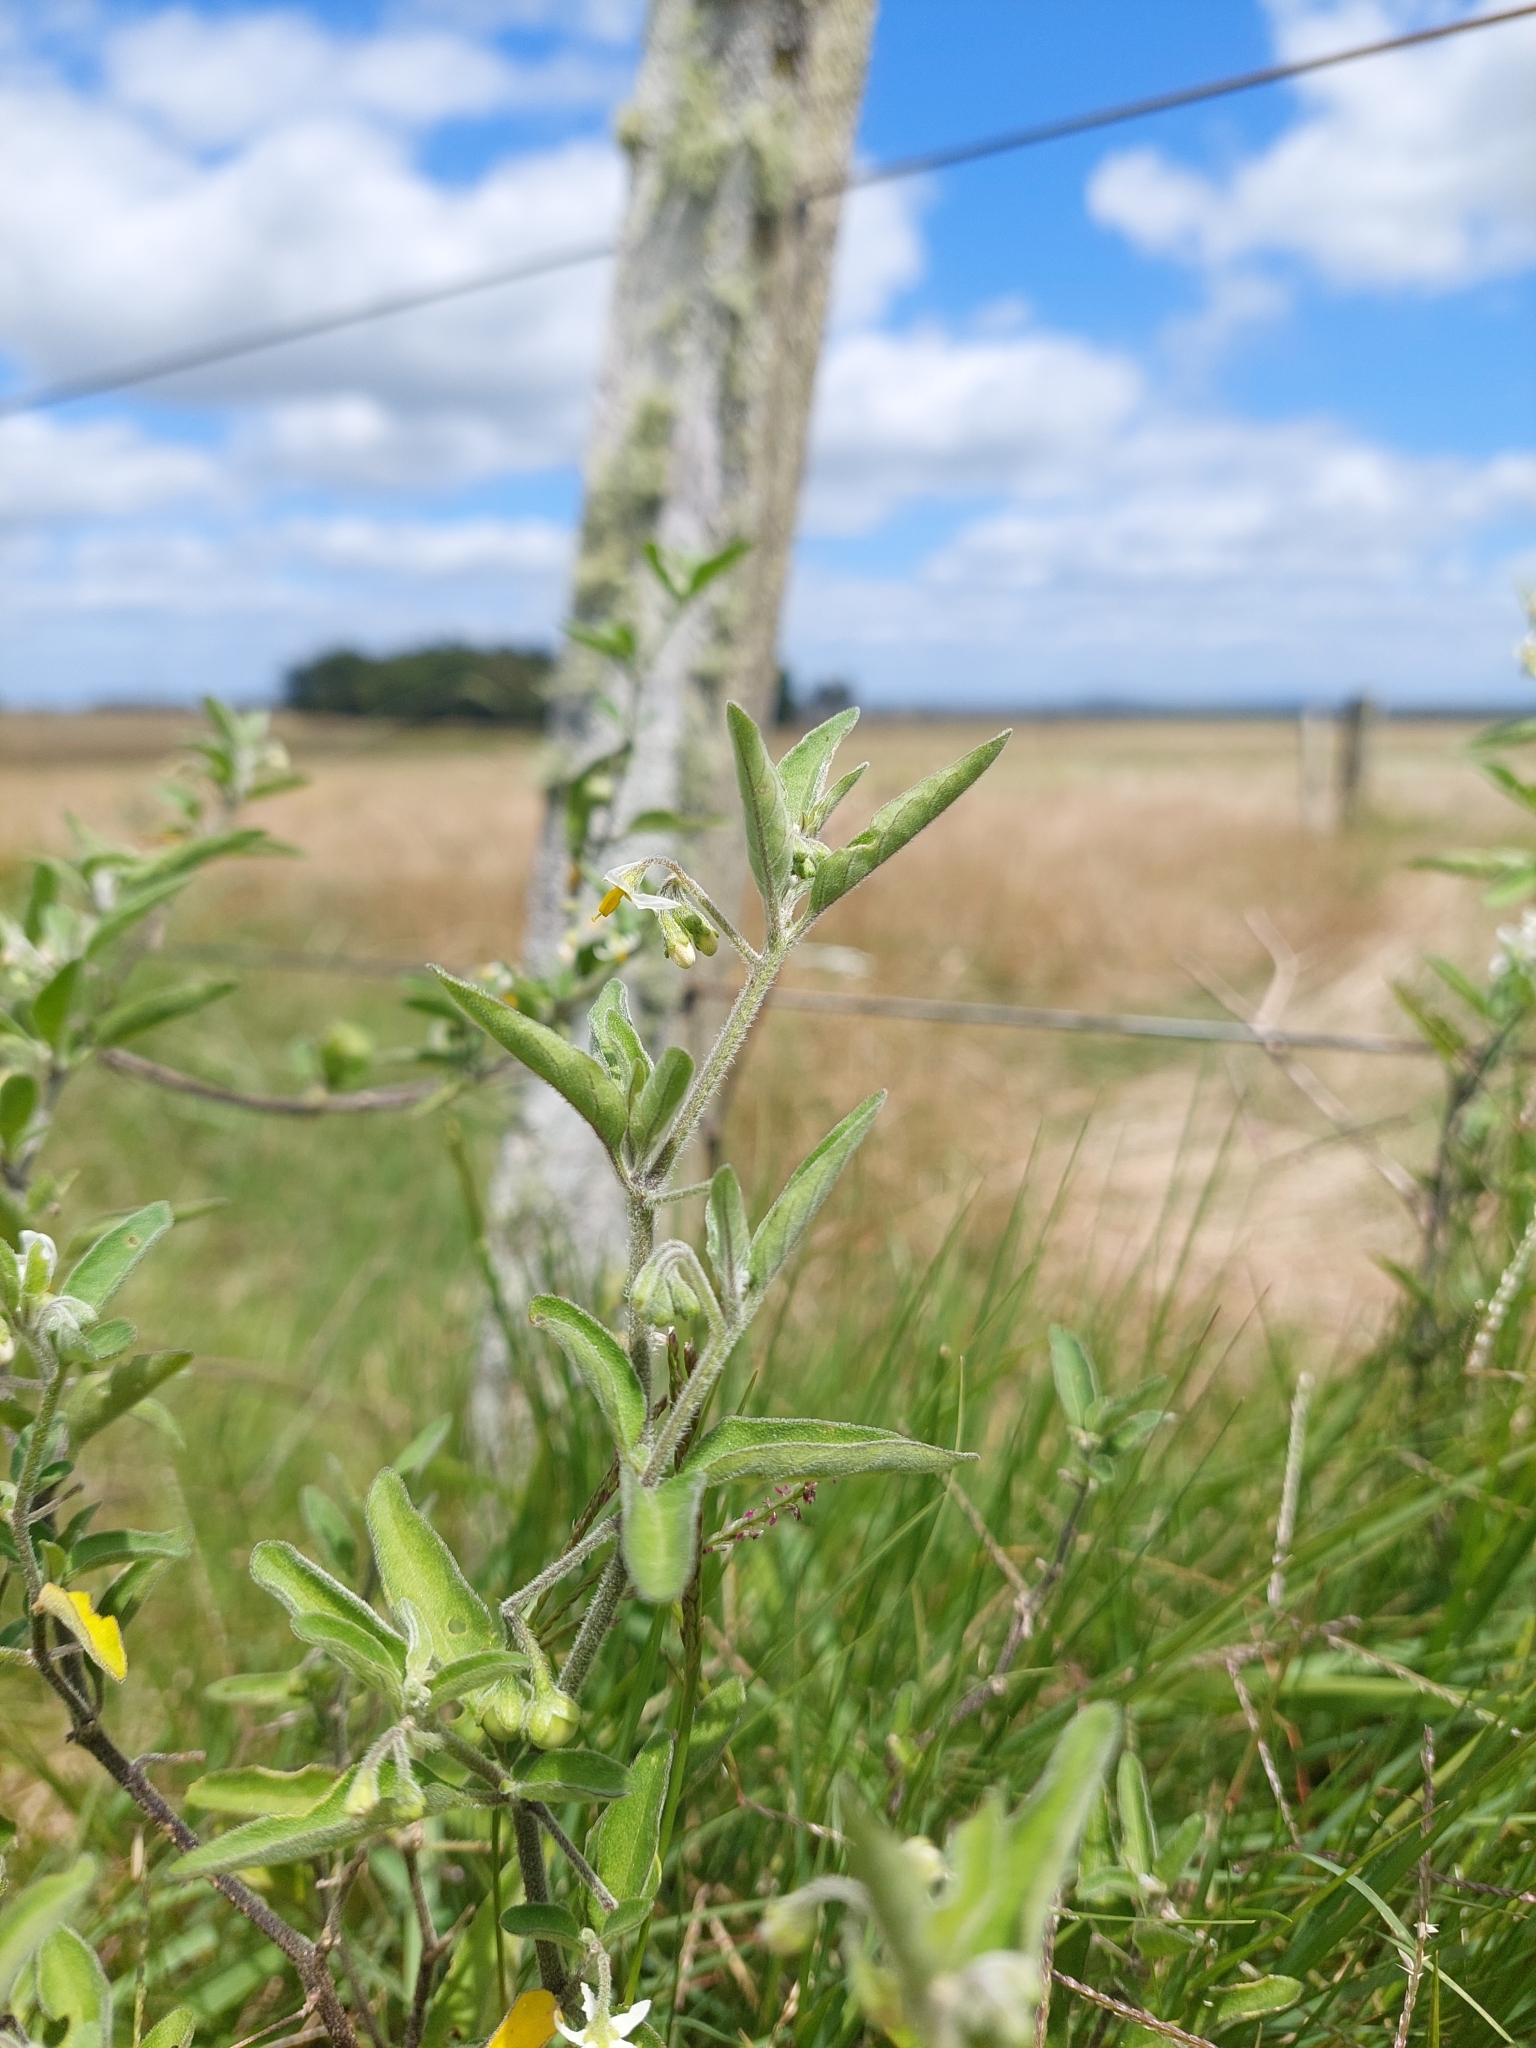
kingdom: Plantae
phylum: Tracheophyta
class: Magnoliopsida
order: Solanales
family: Solanaceae
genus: Solanum
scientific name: Solanum chenopodioides
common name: Tall nightshade
